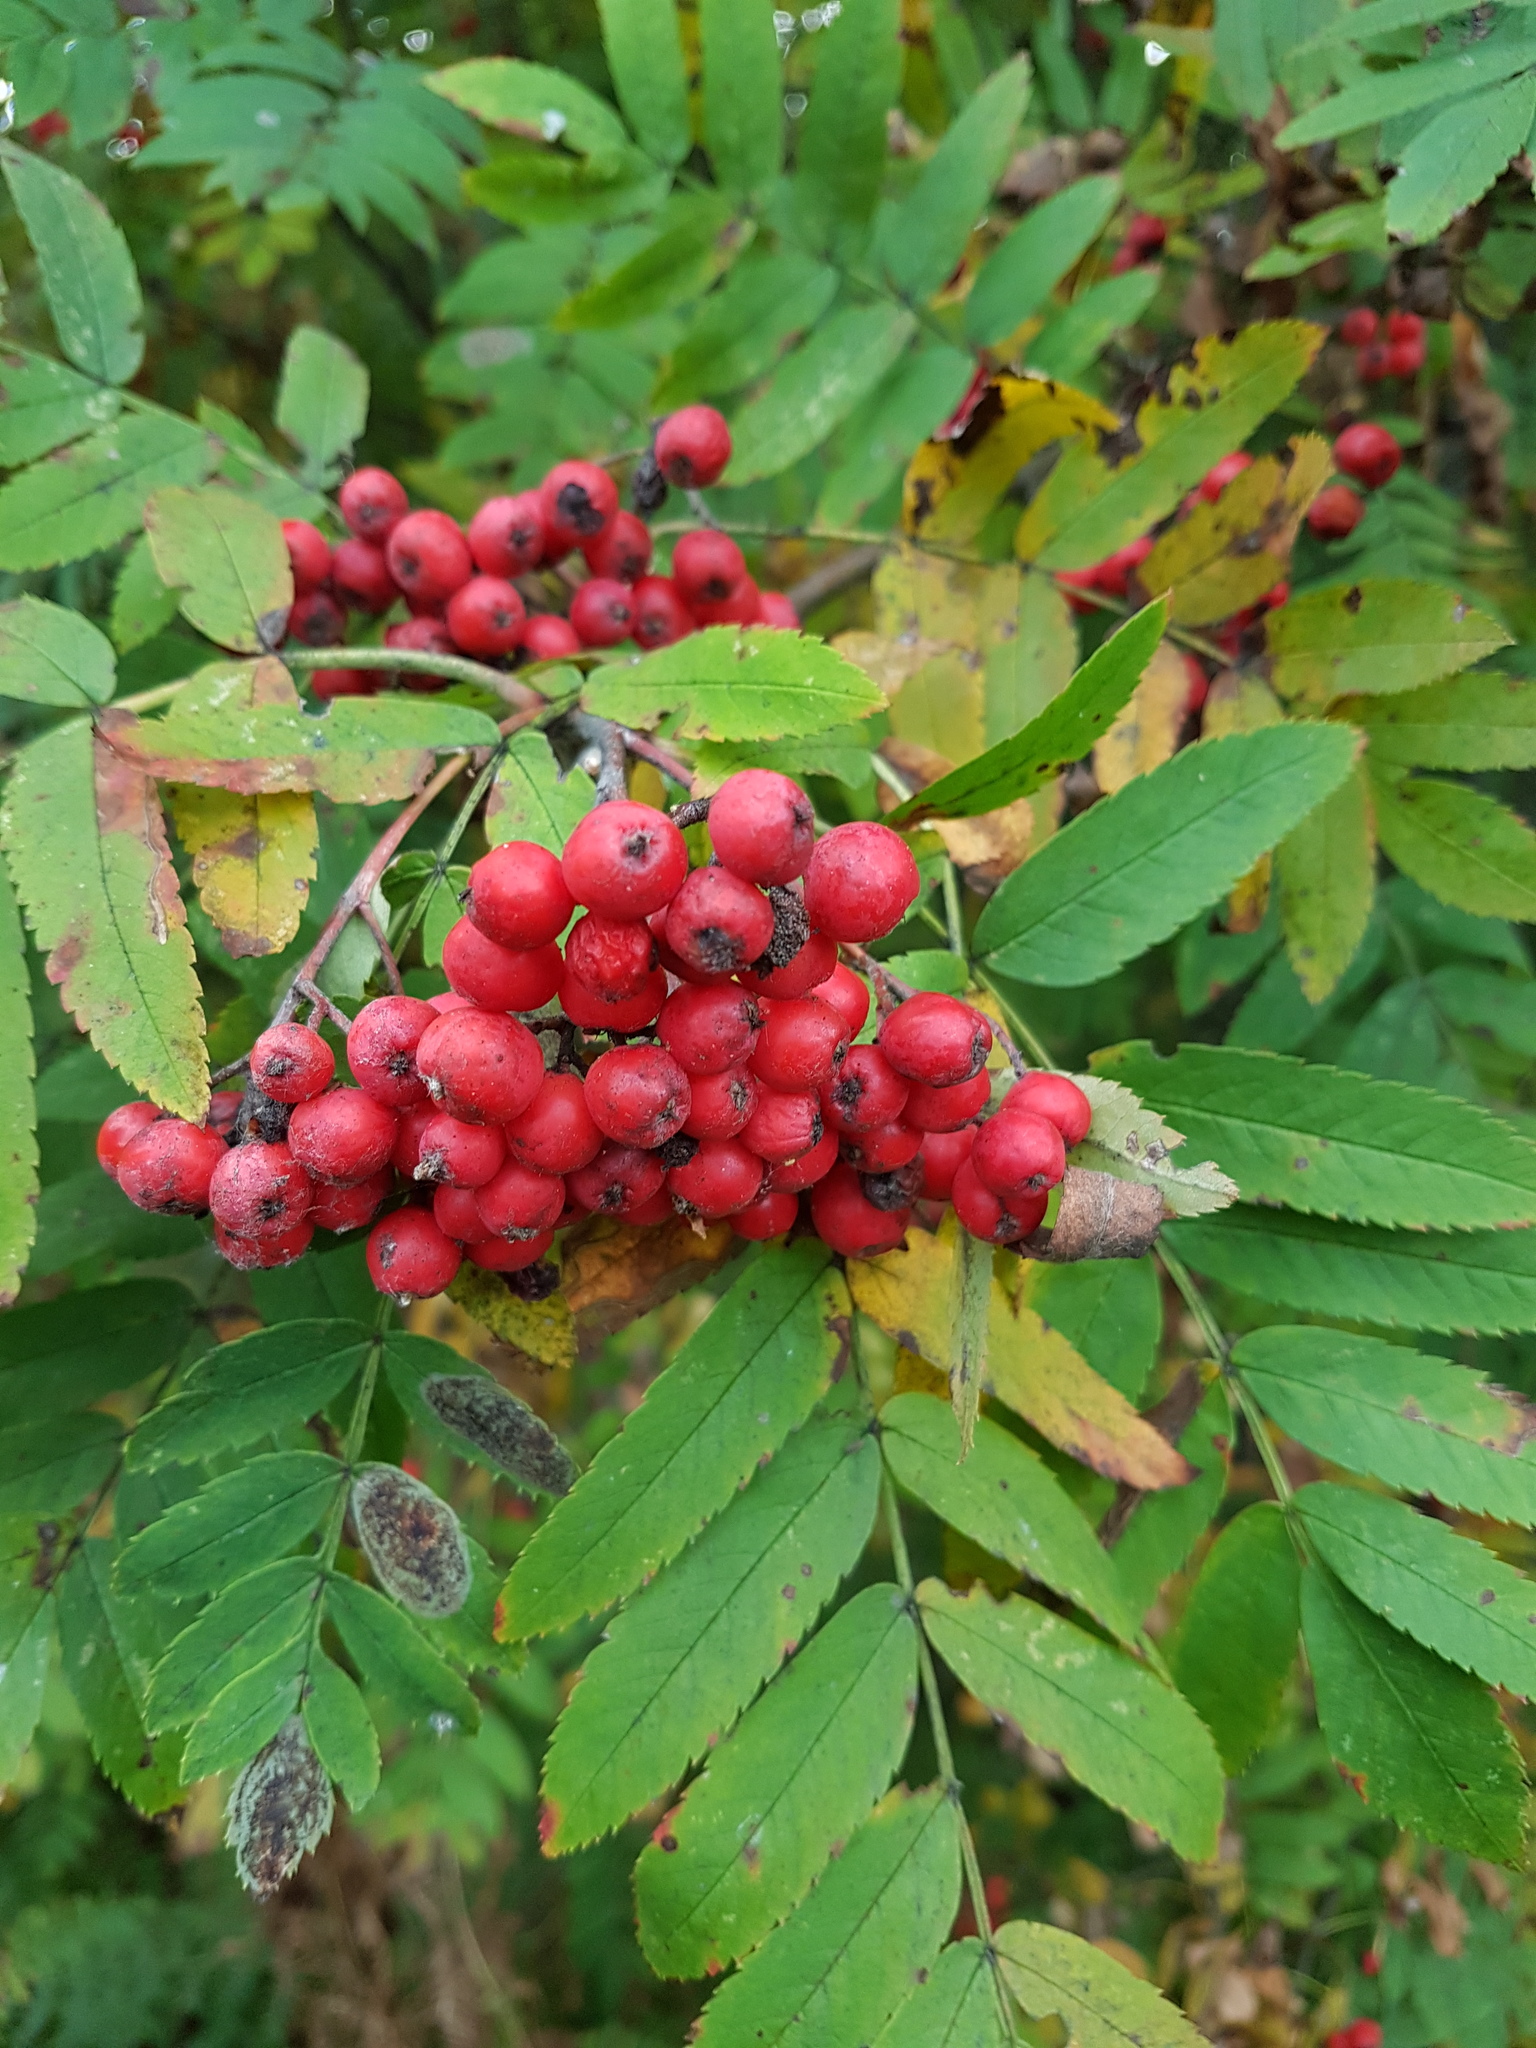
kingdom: Plantae
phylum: Tracheophyta
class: Magnoliopsida
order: Rosales
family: Rosaceae
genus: Sorbus
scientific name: Sorbus aucuparia
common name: Rowan
